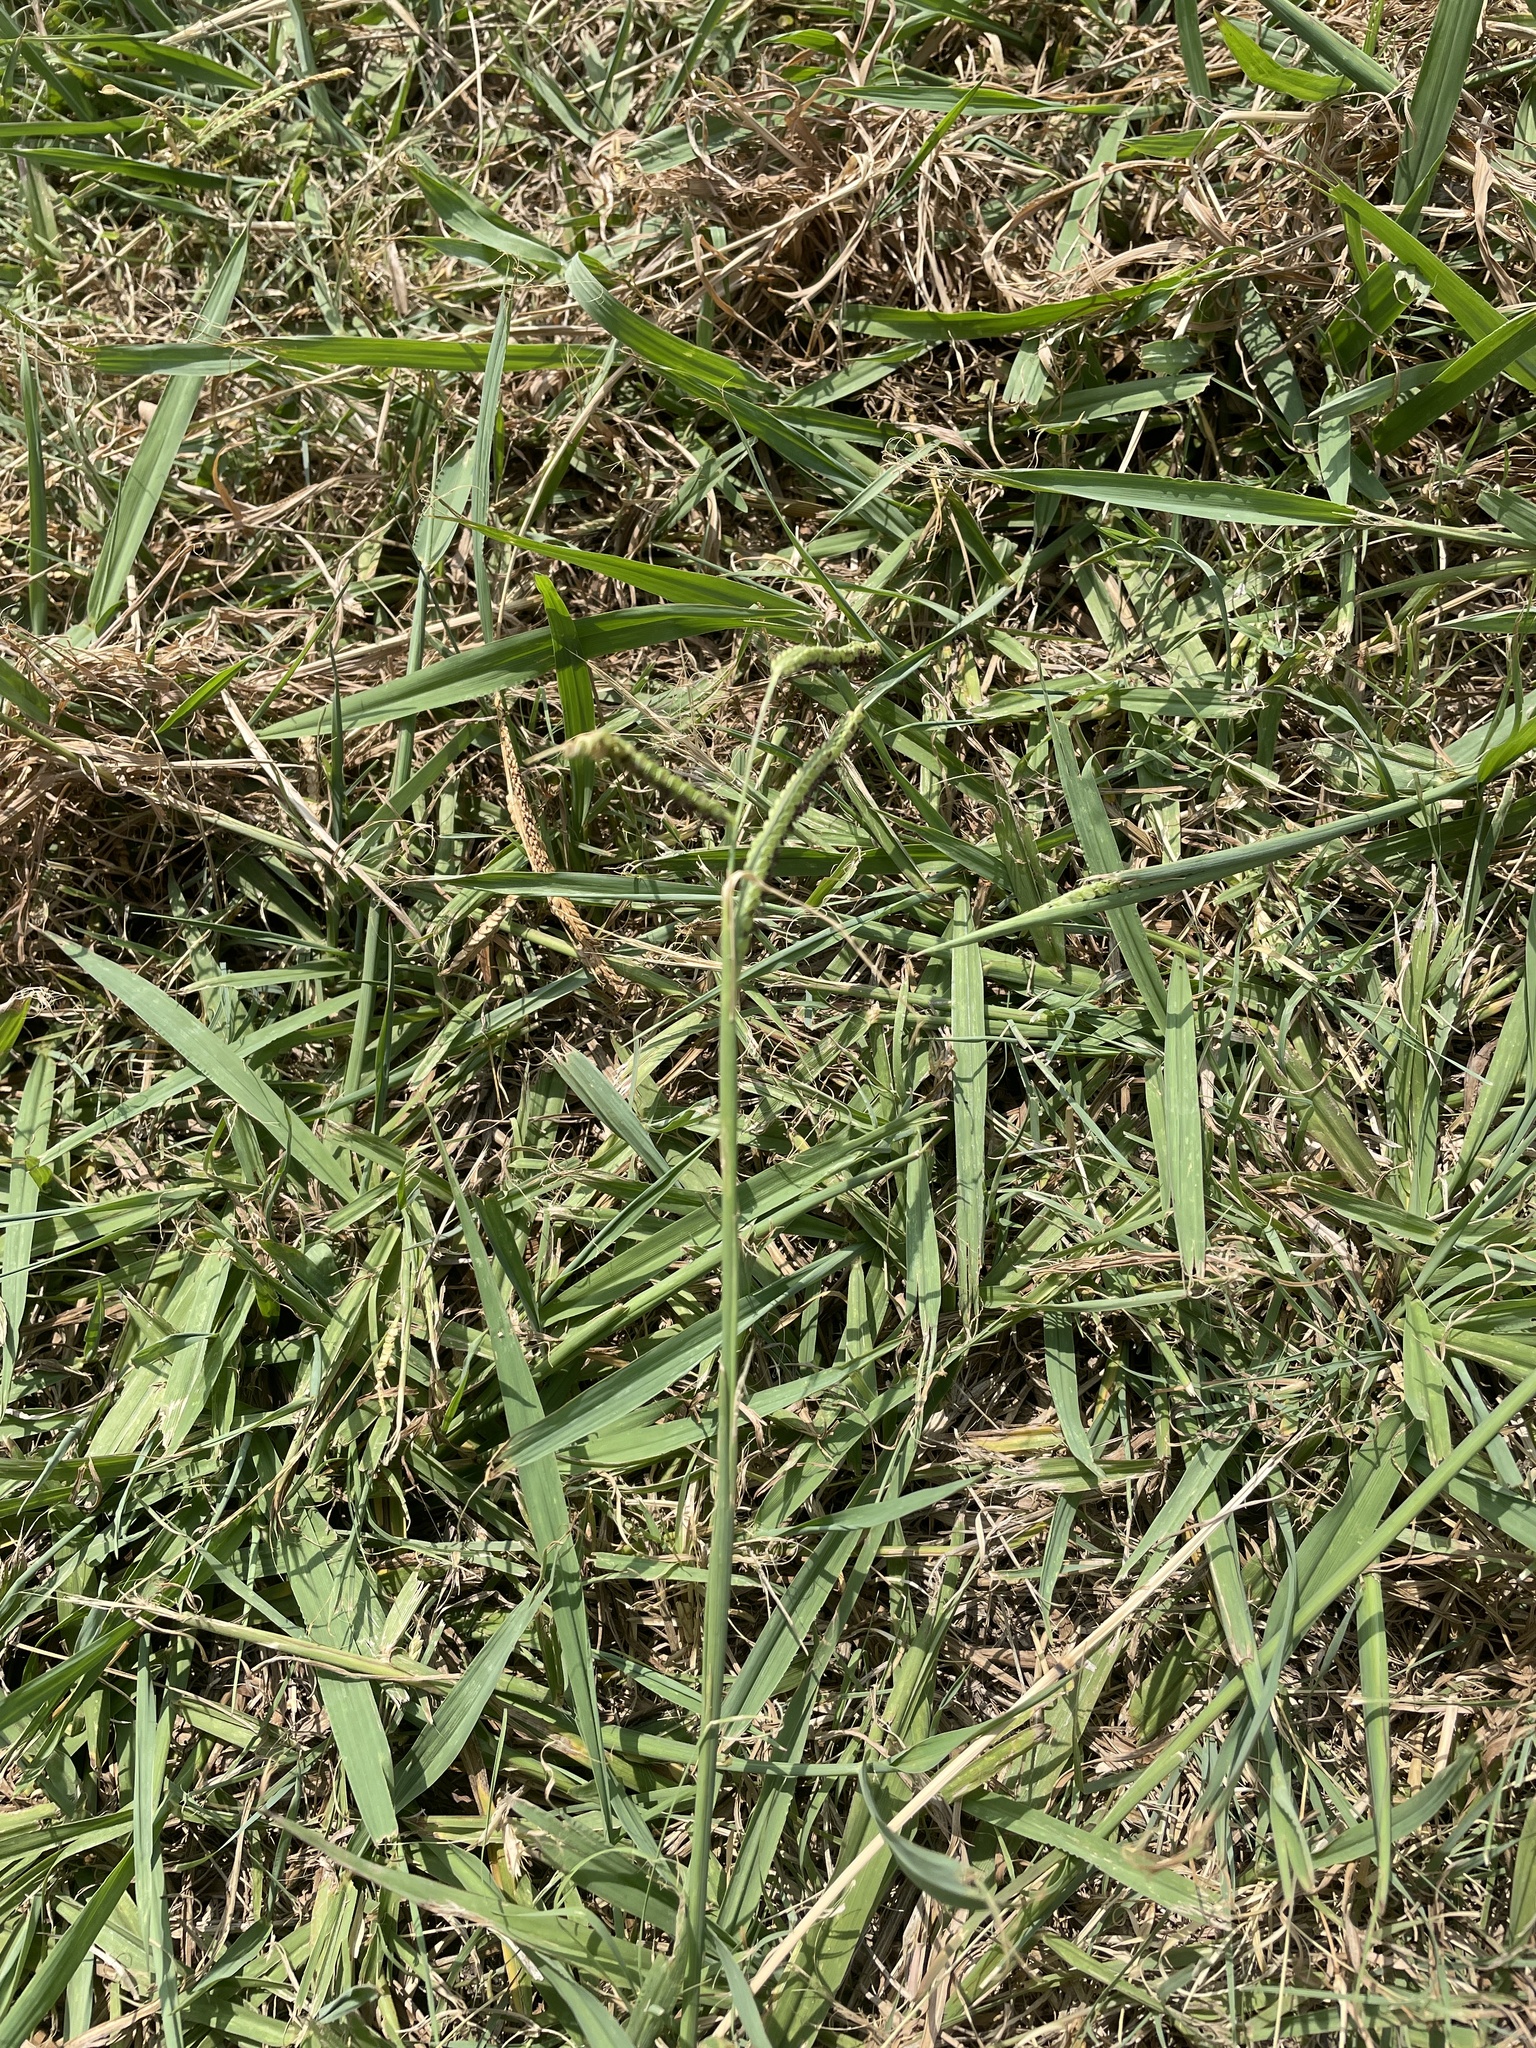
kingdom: Plantae
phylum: Tracheophyta
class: Liliopsida
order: Poales
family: Poaceae
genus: Paspalum
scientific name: Paspalum dilatatum
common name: Dallisgrass
